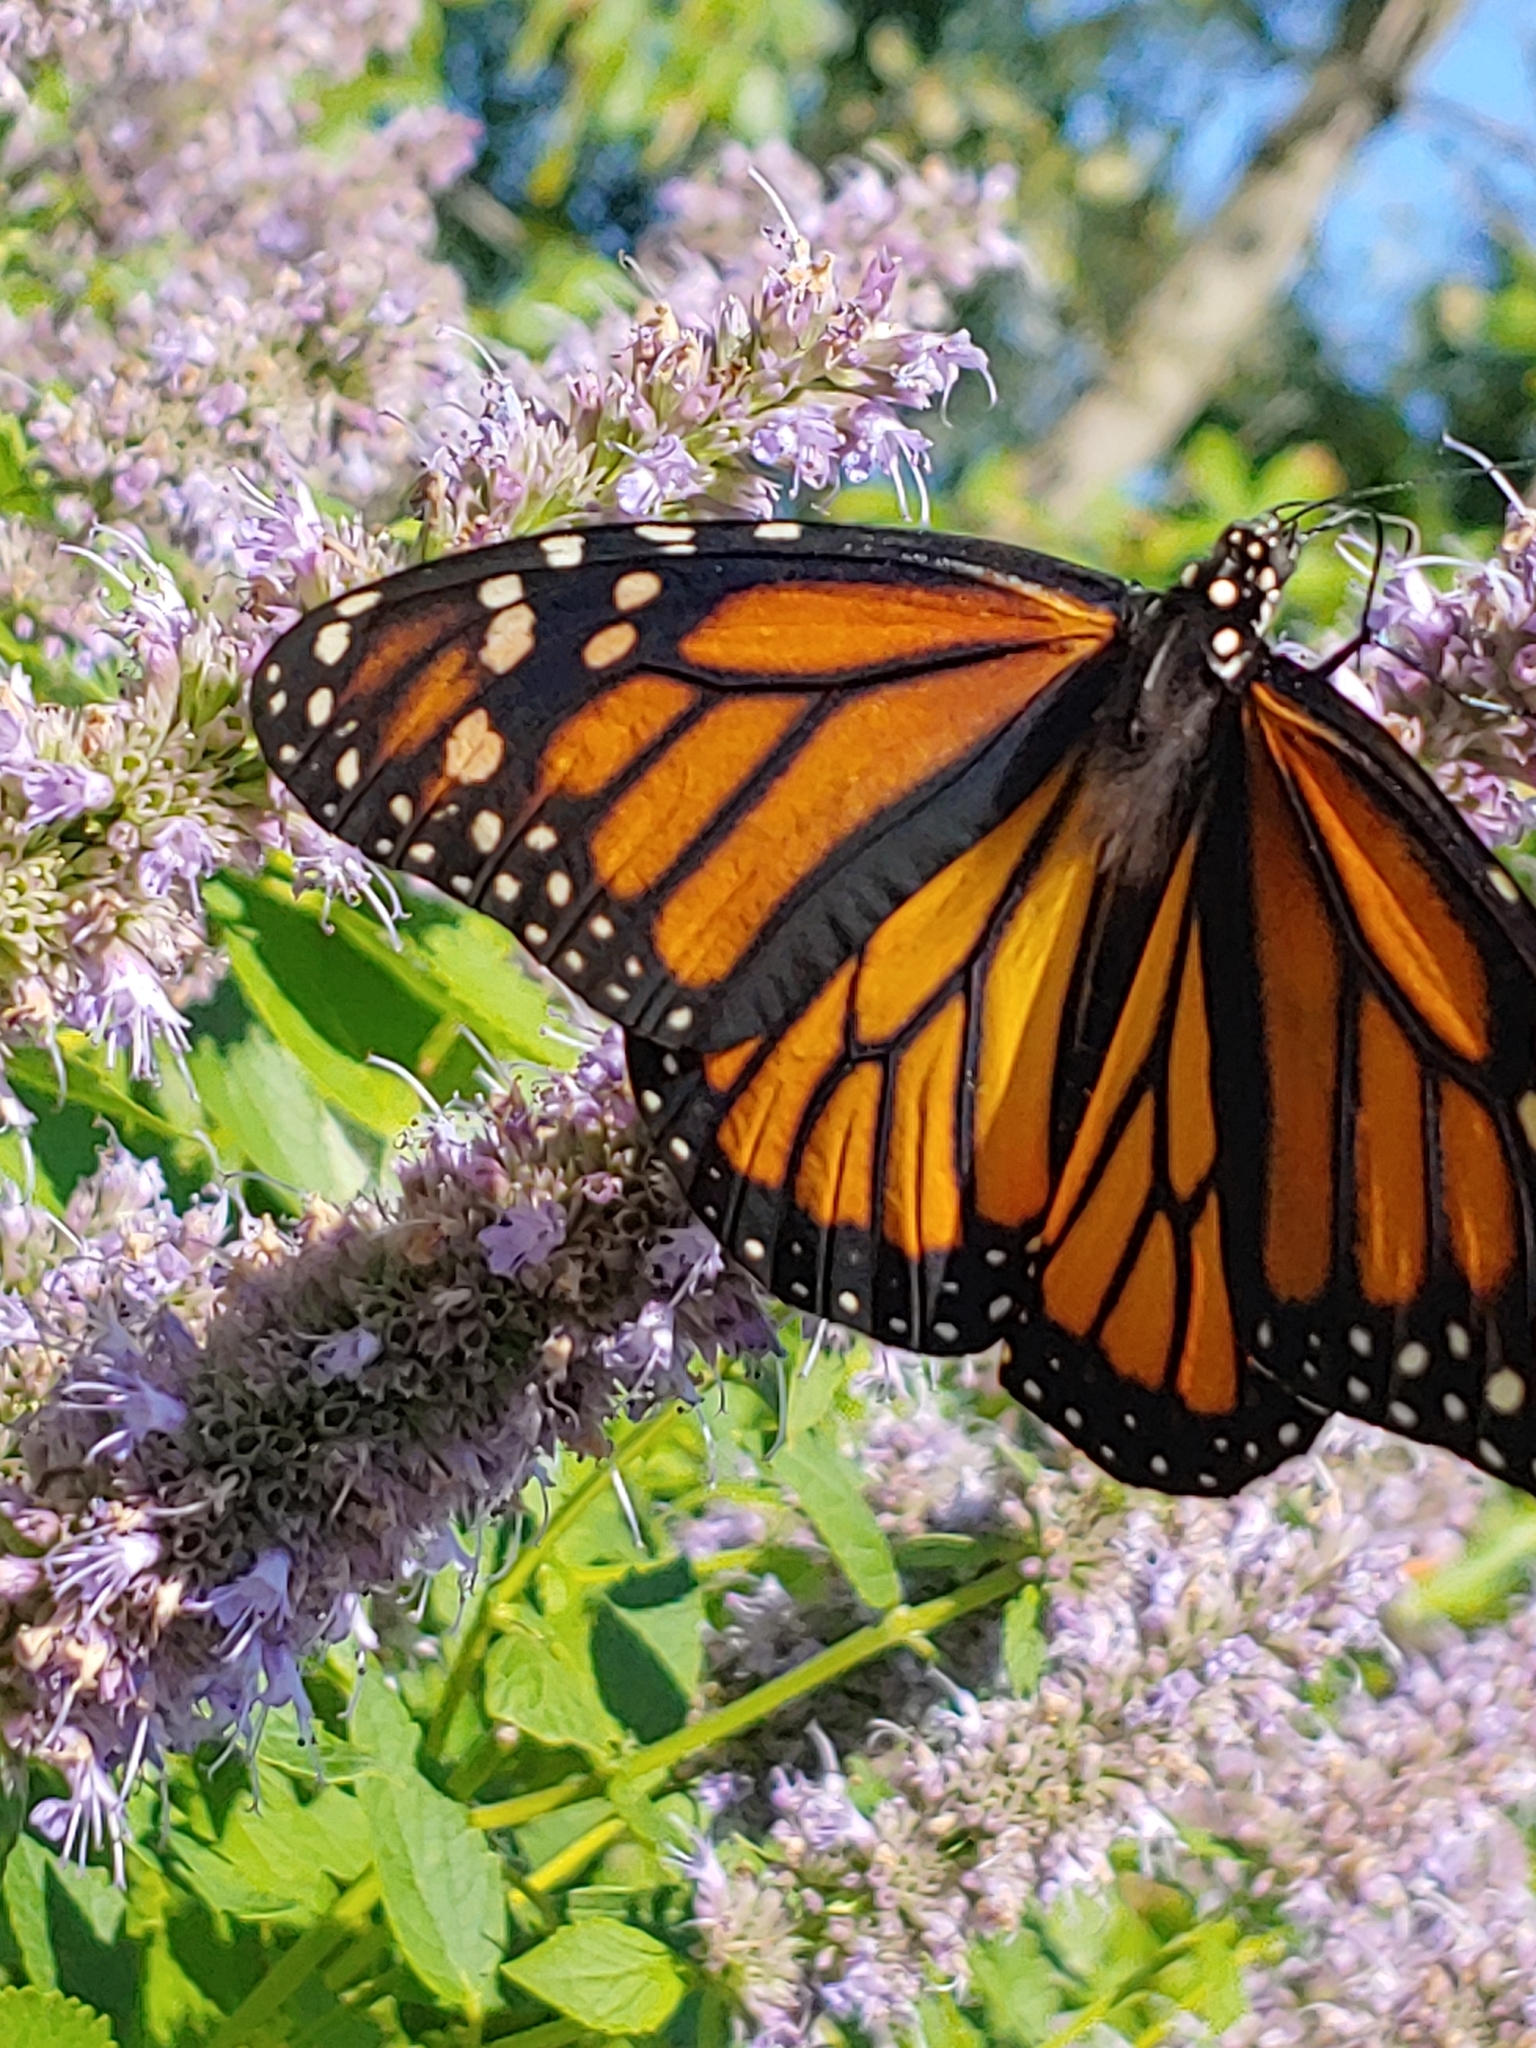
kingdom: Animalia
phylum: Arthropoda
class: Insecta
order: Lepidoptera
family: Nymphalidae
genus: Danaus
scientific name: Danaus plexippus
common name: Monarch
